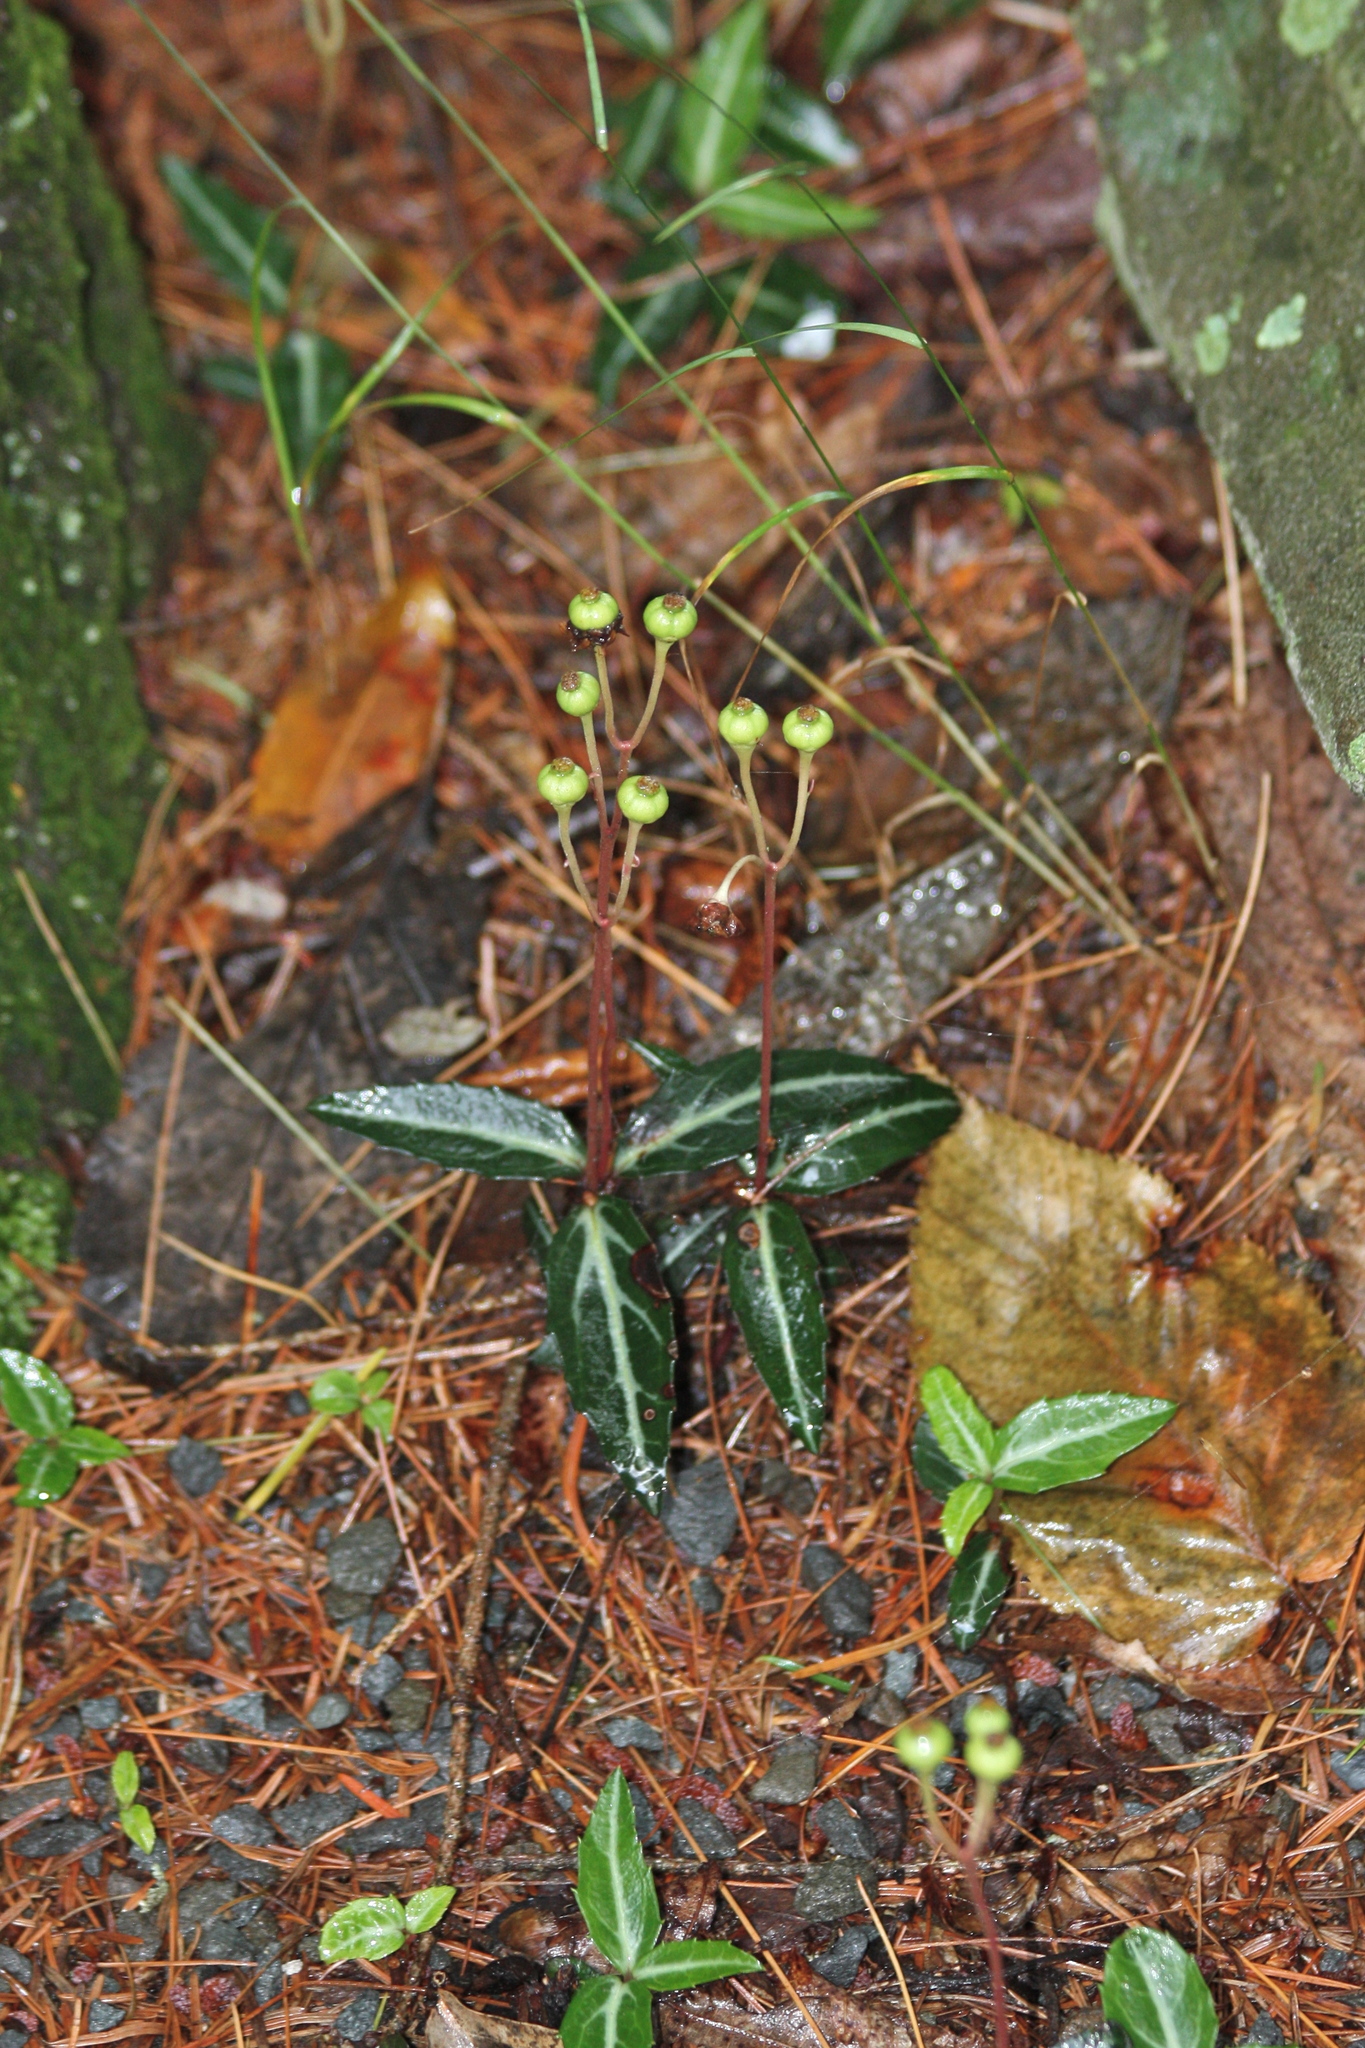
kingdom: Plantae
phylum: Tracheophyta
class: Magnoliopsida
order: Ericales
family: Ericaceae
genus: Chimaphila
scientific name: Chimaphila maculata
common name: Spotted pipsissewa
